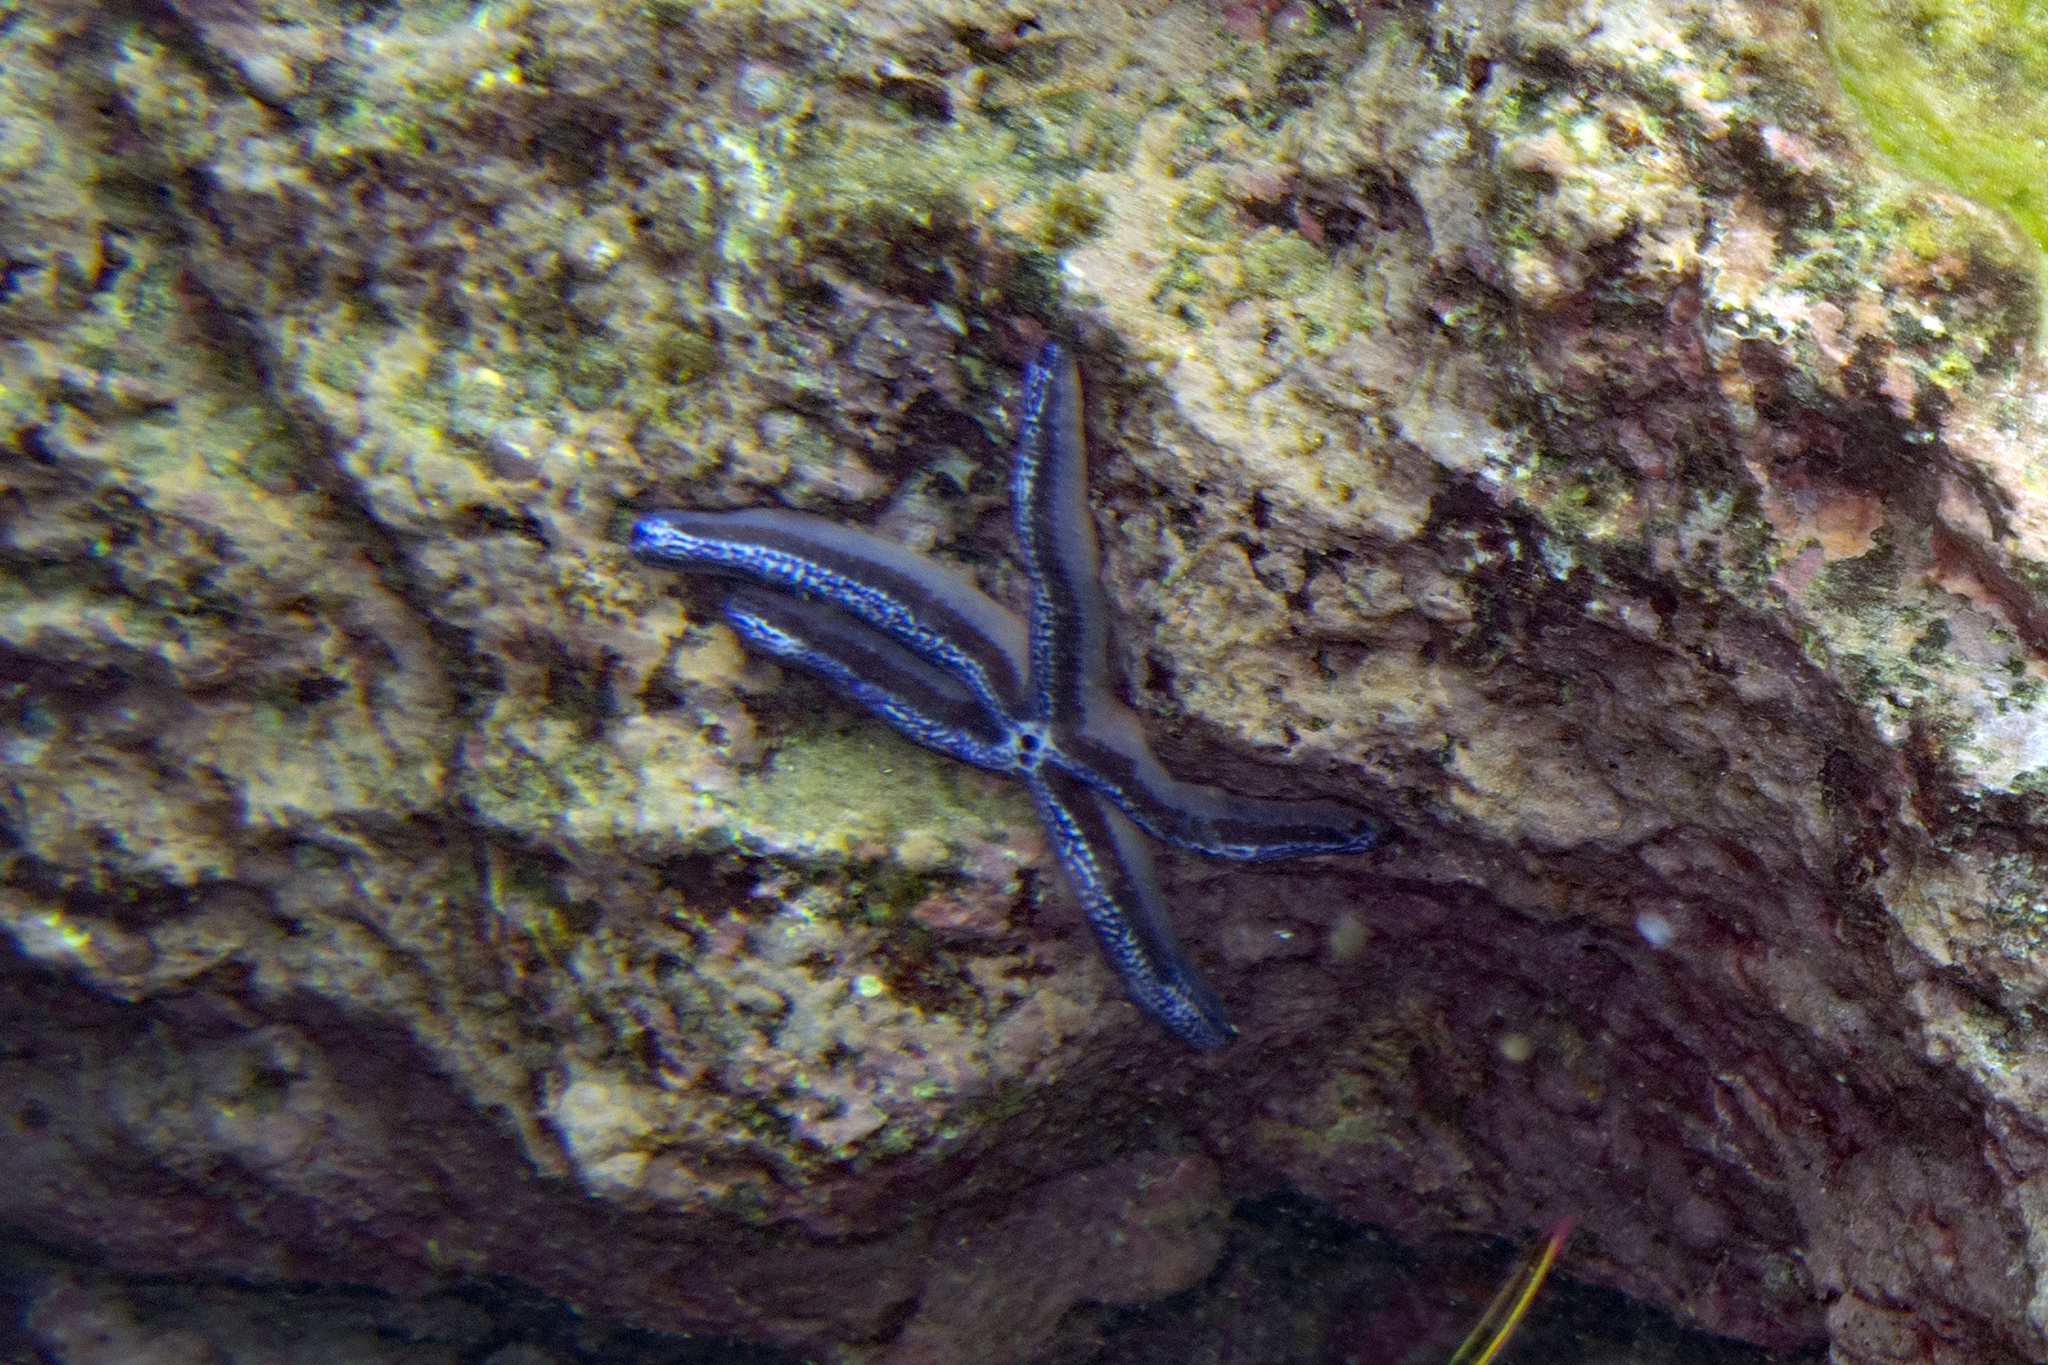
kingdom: Animalia
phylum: Echinodermata
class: Asteroidea
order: Valvatida
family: Ophidiasteridae
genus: Phataria
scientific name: Phataria unifascialis
